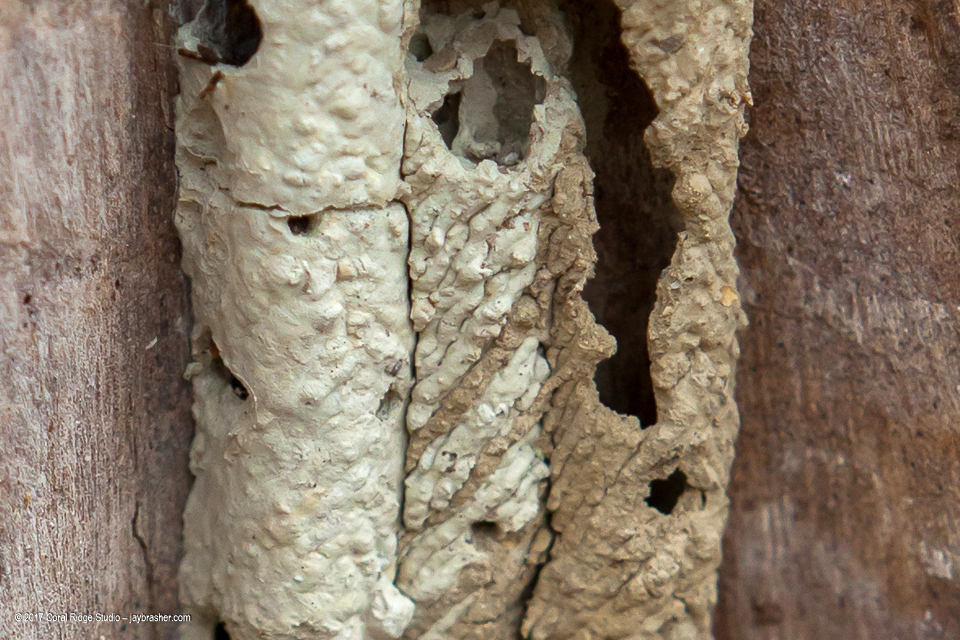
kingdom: Animalia
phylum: Arthropoda
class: Insecta
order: Hymenoptera
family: Crabronidae
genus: Trypoxylon
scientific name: Trypoxylon politum
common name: Organ-pipe mud-dauber wasp
